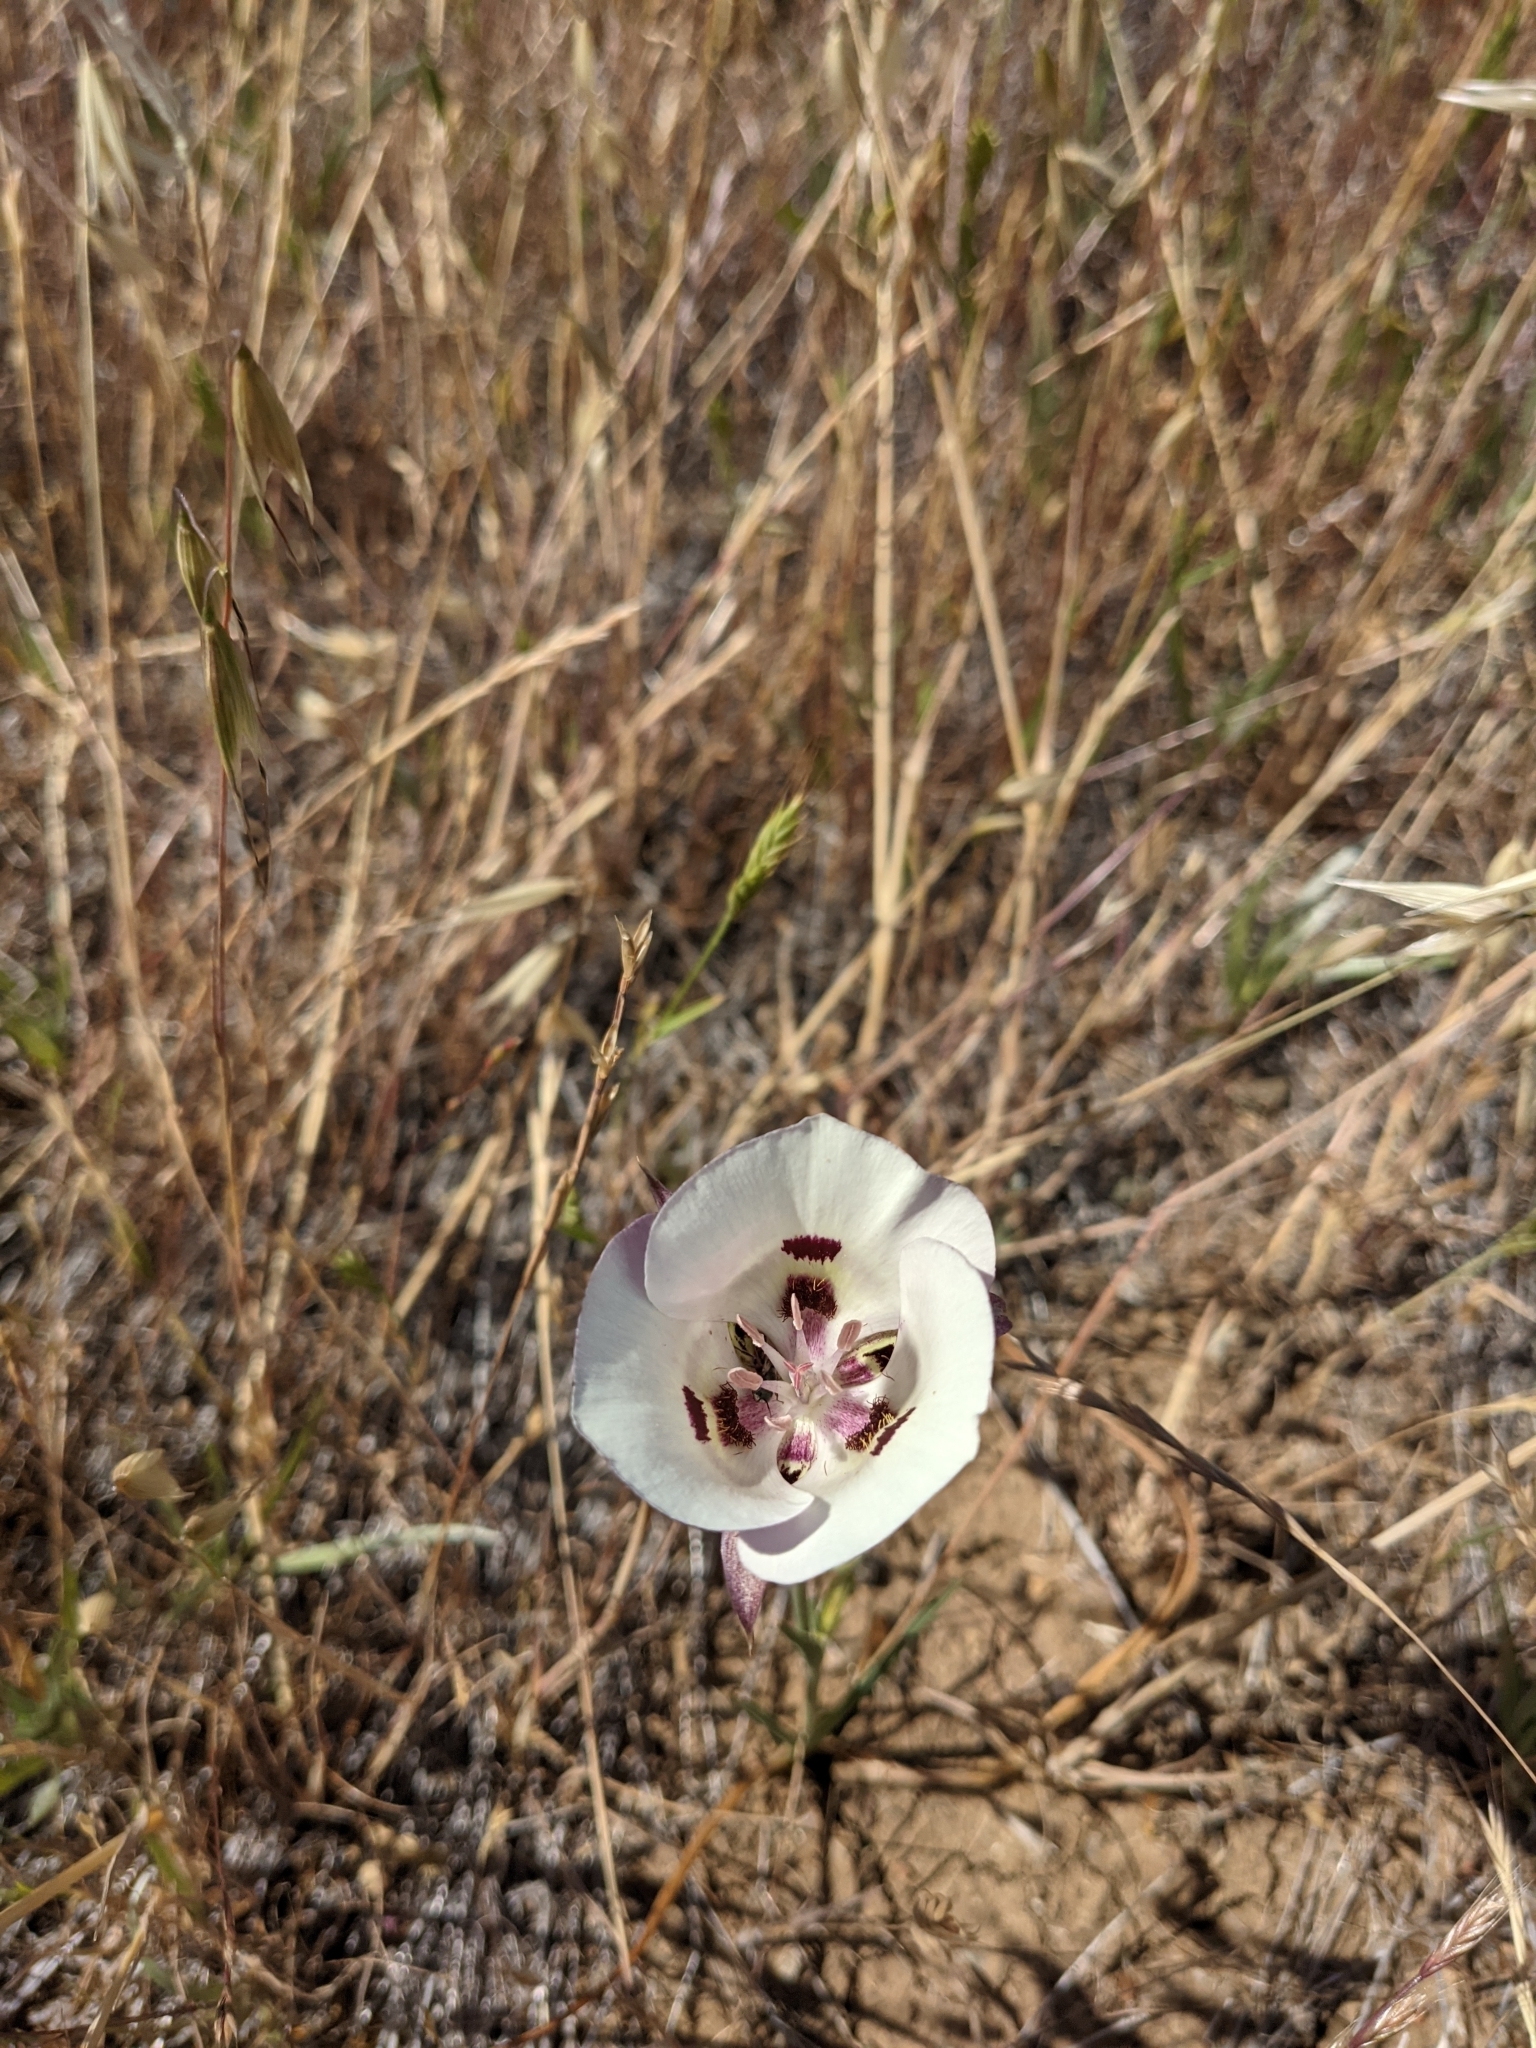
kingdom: Plantae
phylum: Tracheophyta
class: Liliopsida
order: Liliales
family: Liliaceae
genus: Calochortus
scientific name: Calochortus argillosus
